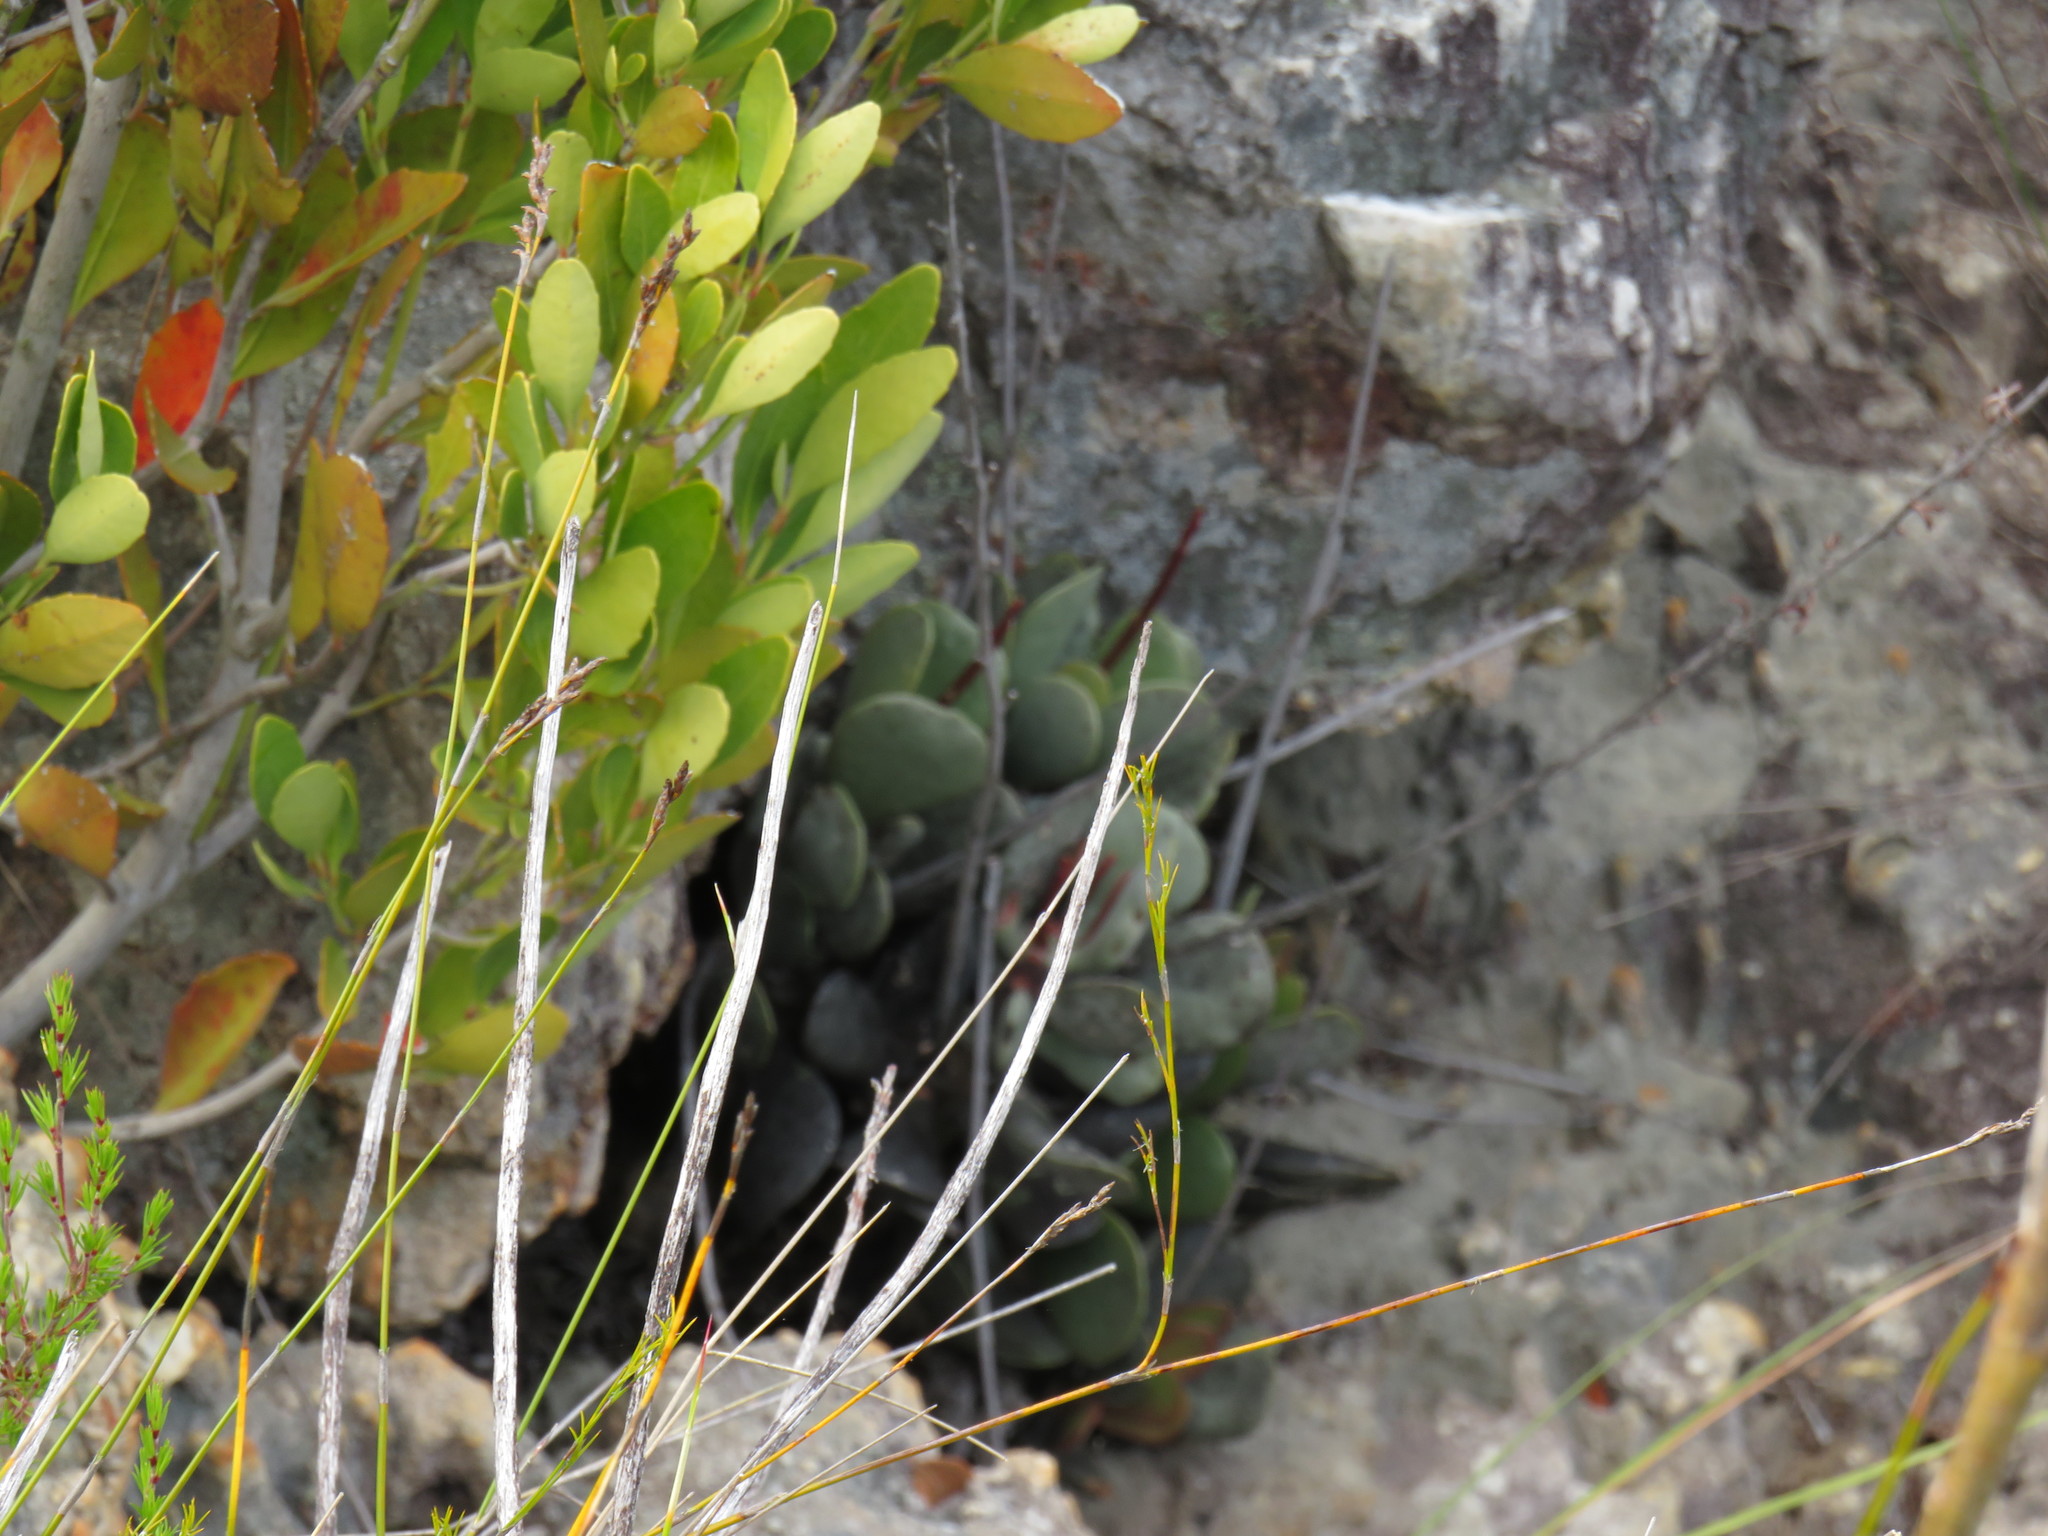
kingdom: Plantae
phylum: Tracheophyta
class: Magnoliopsida
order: Saxifragales
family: Crassulaceae
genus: Adromischus
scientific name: Adromischus hemisphaericus
